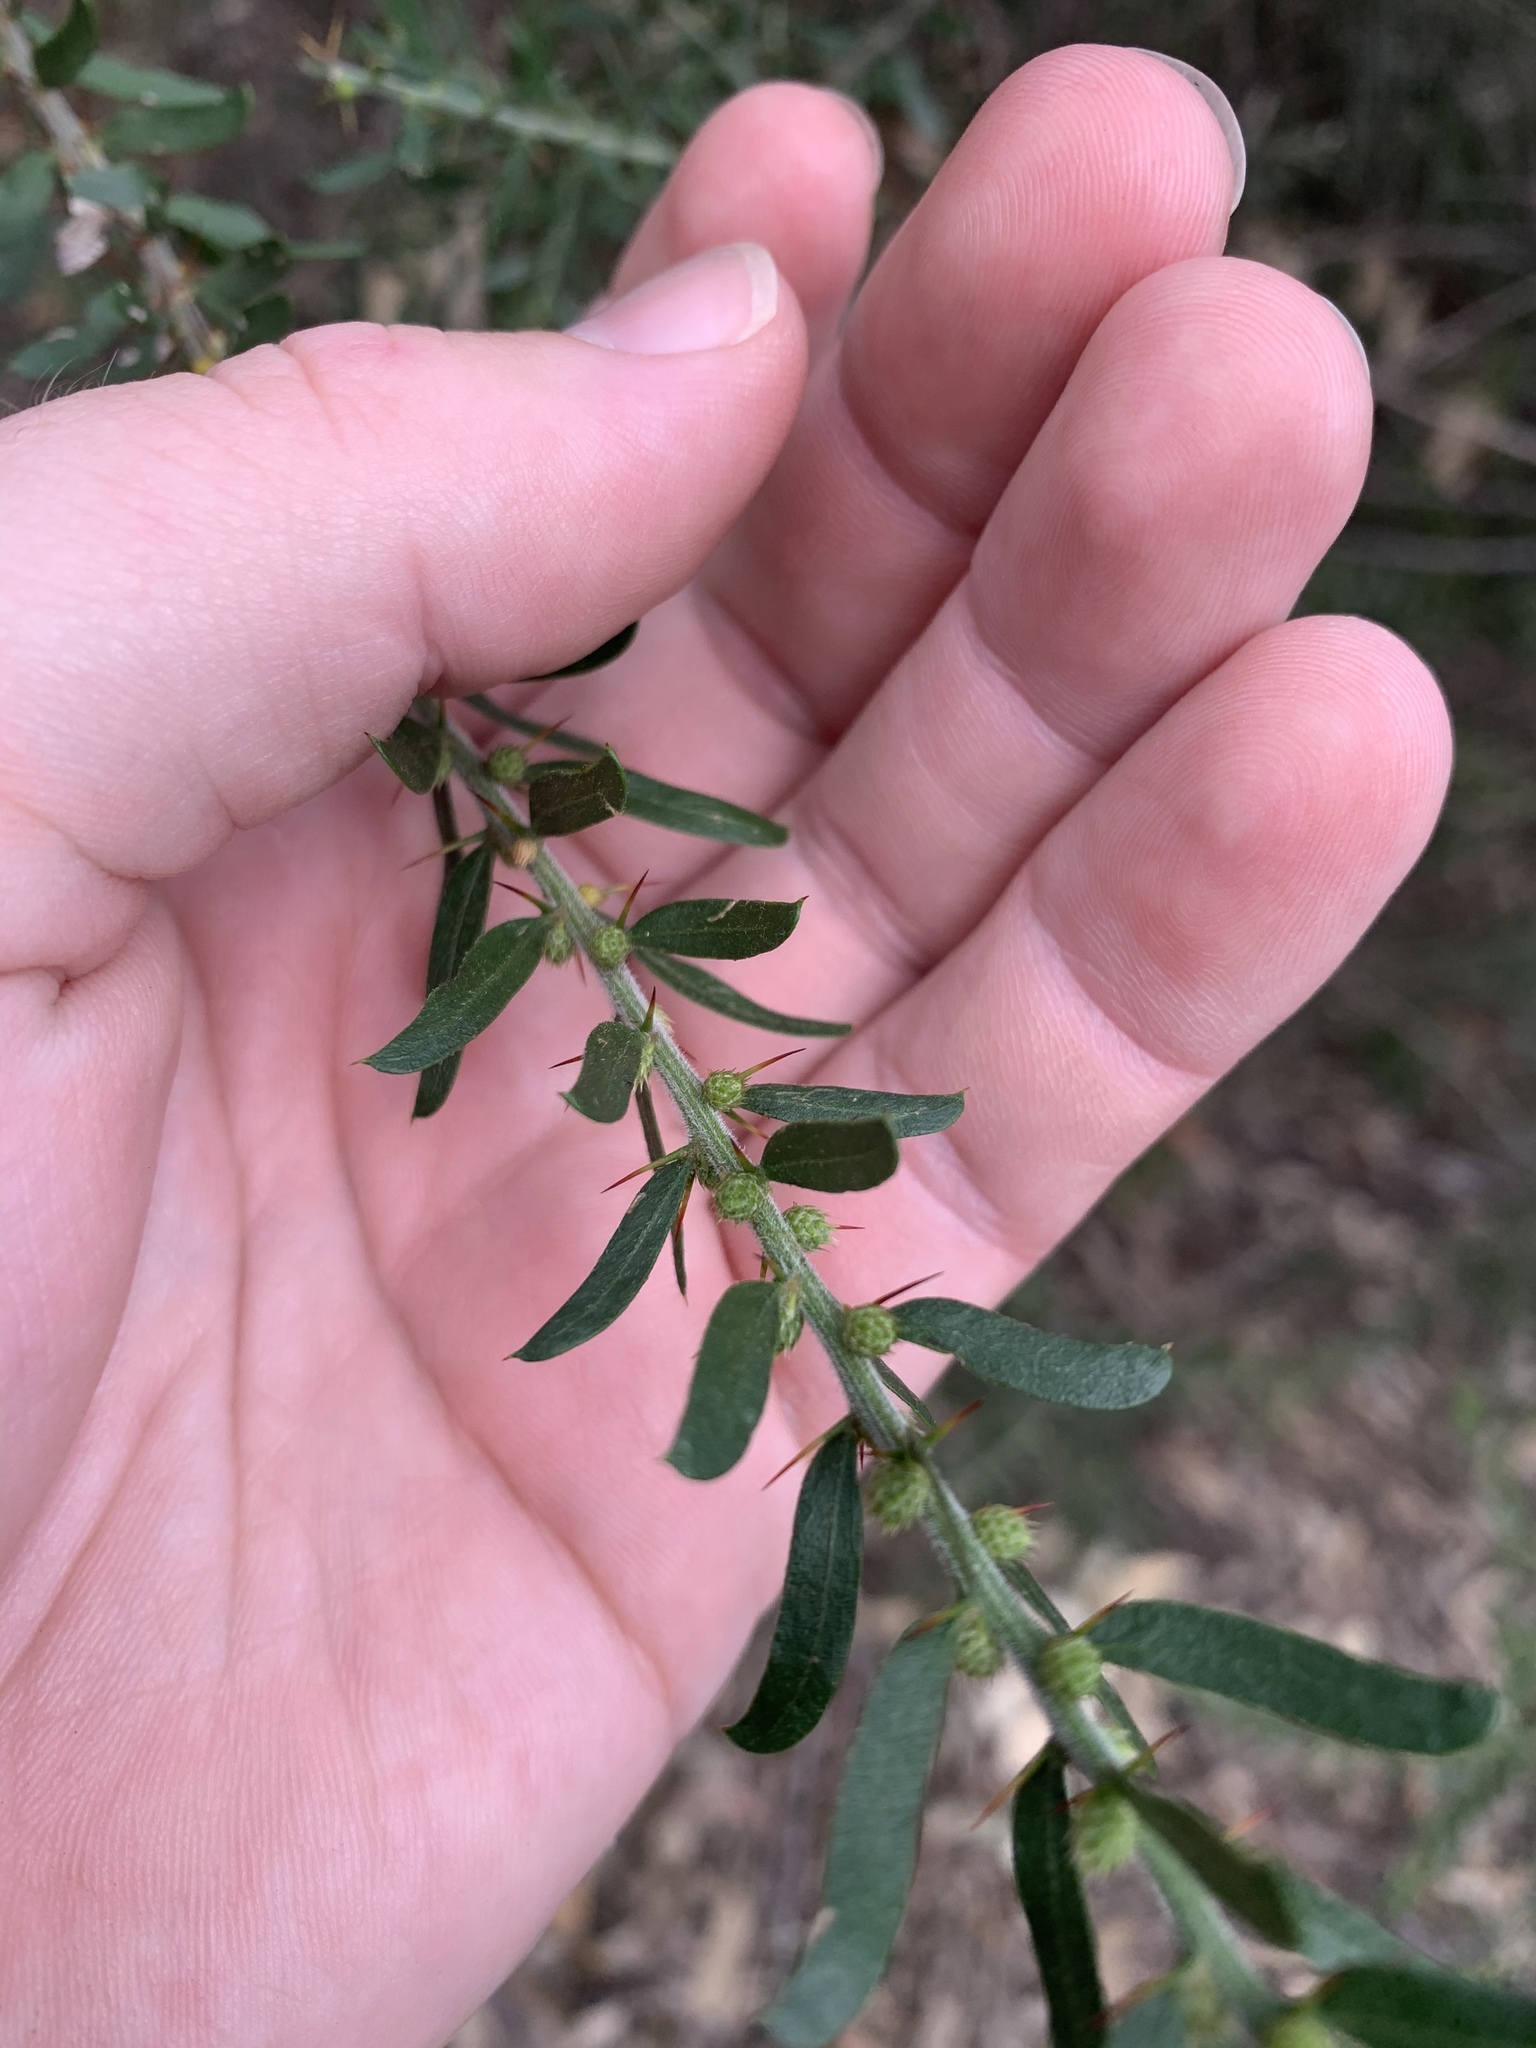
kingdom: Plantae
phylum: Tracheophyta
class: Magnoliopsida
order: Fabales
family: Fabaceae
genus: Acacia
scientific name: Acacia paradoxa
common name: Paradox acacia
